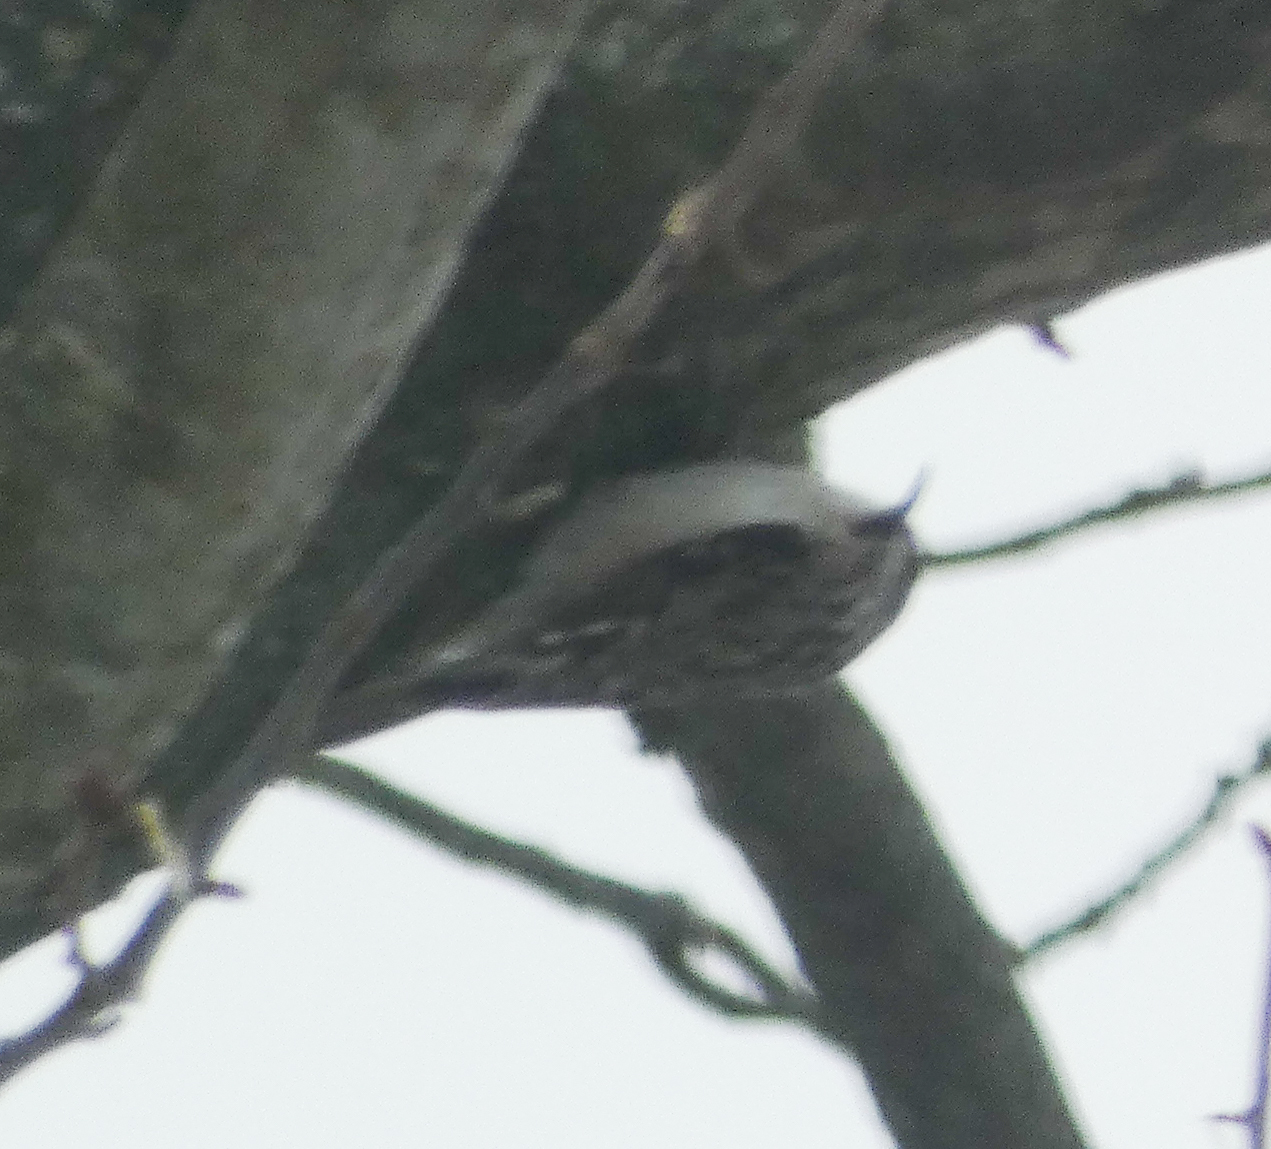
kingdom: Animalia
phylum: Chordata
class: Aves
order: Passeriformes
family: Certhiidae
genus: Certhia
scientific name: Certhia americana
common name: Brown creeper
